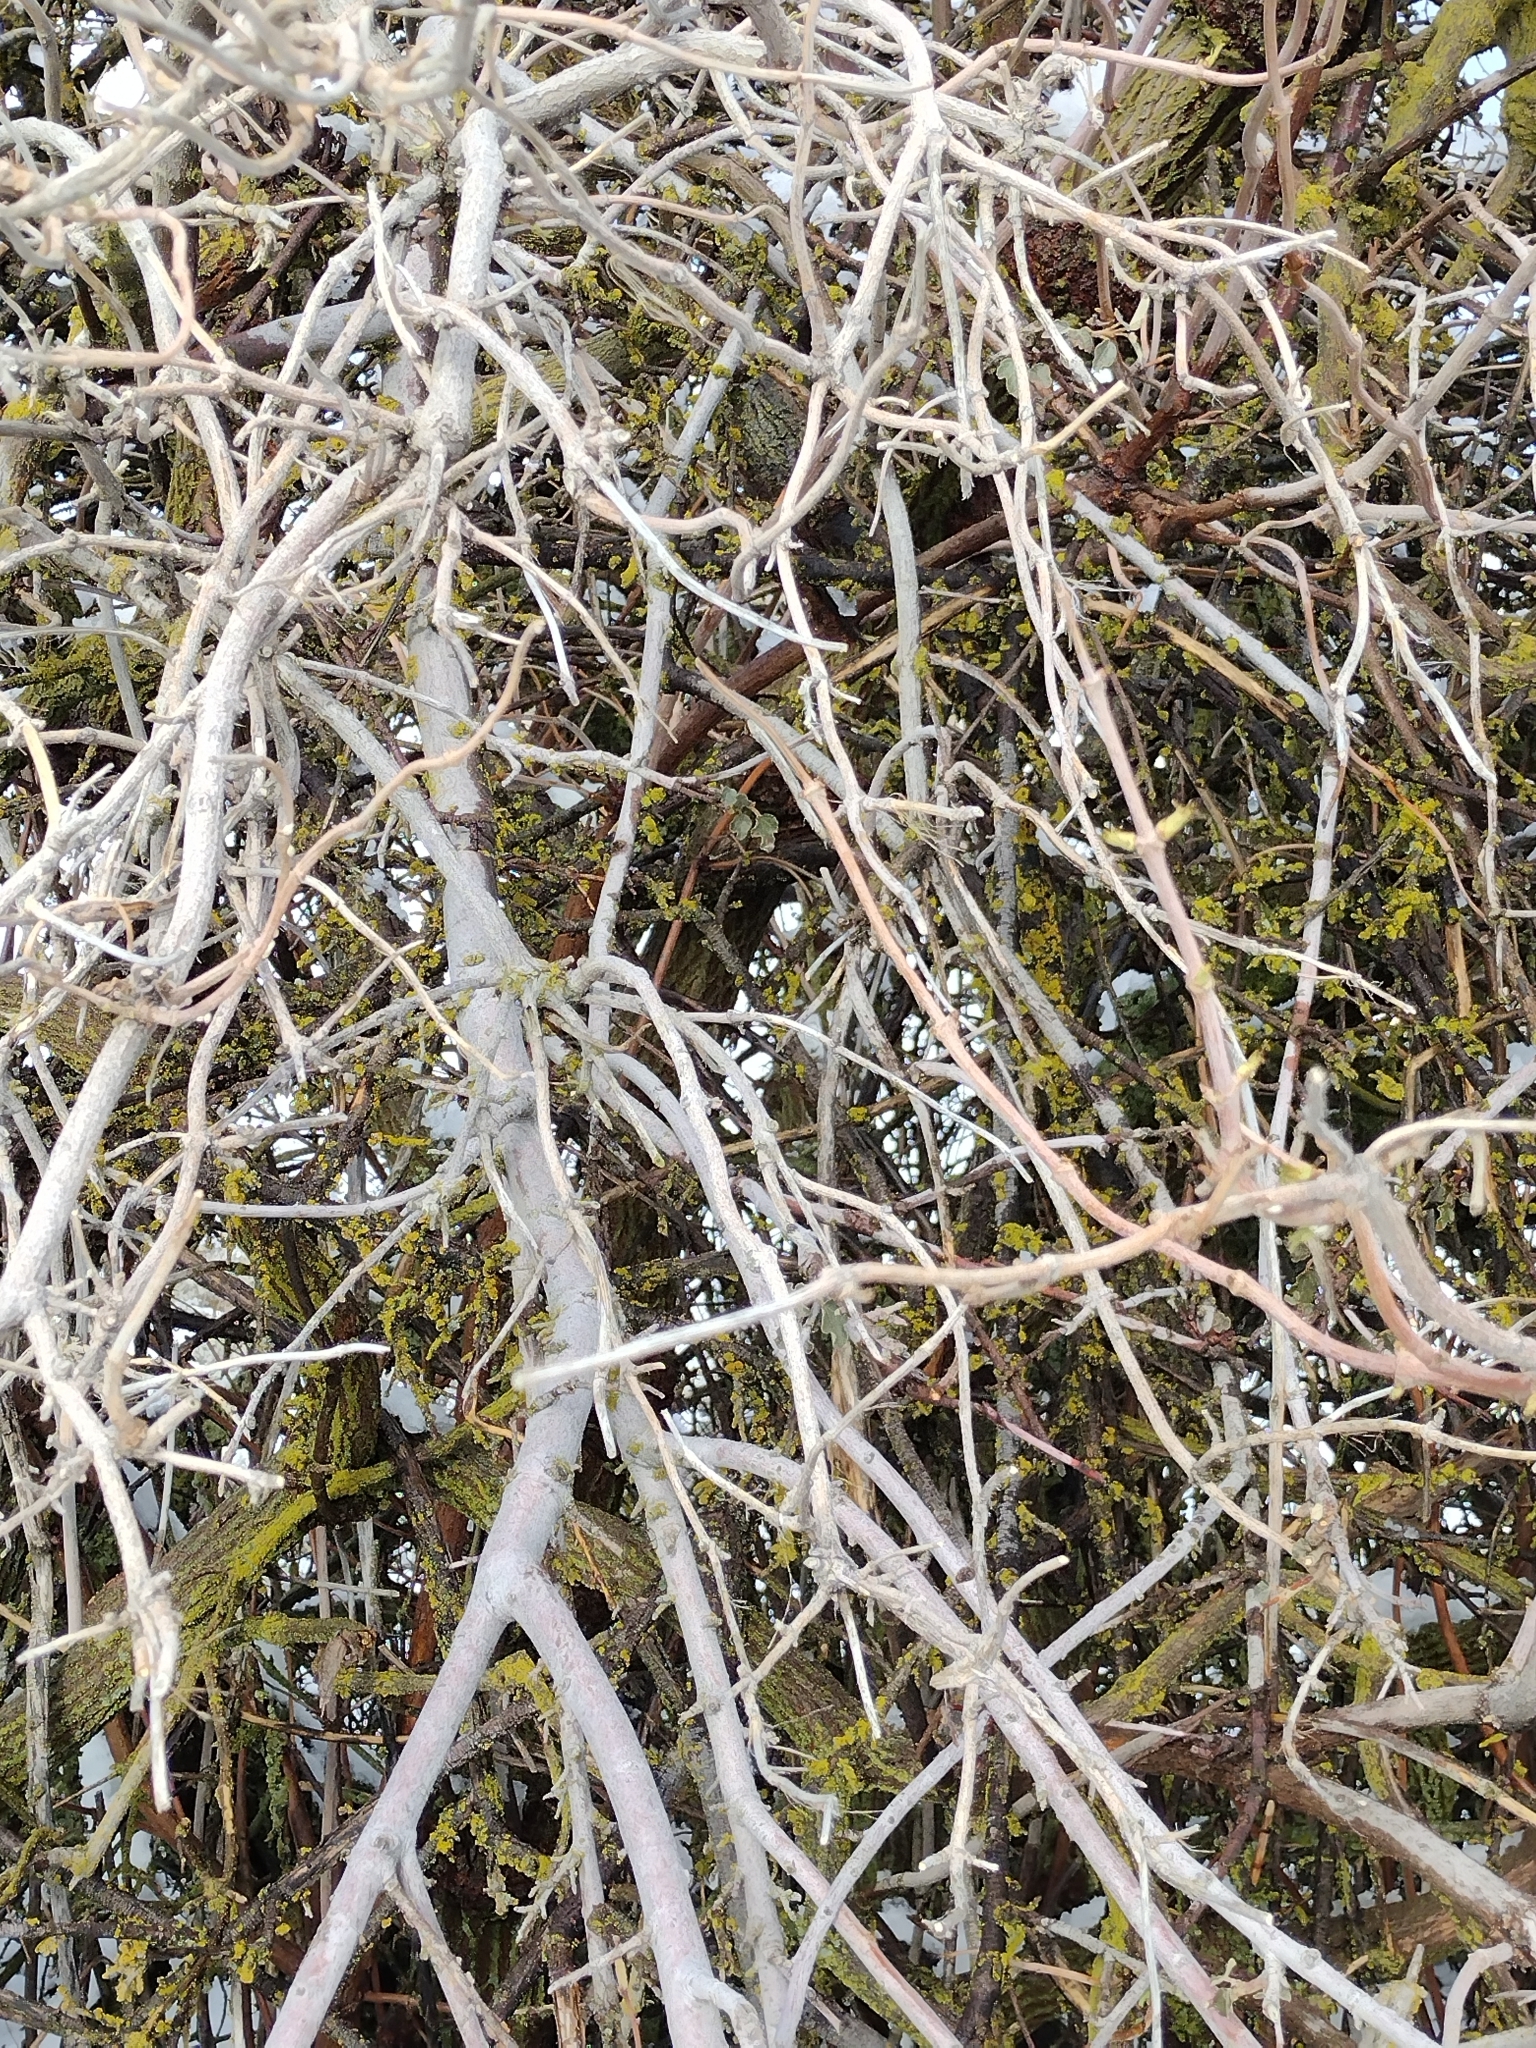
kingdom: Plantae
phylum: Tracheophyta
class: Magnoliopsida
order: Malvales
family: Malvaceae
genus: Fremontodendron
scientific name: Fremontodendron californicum
